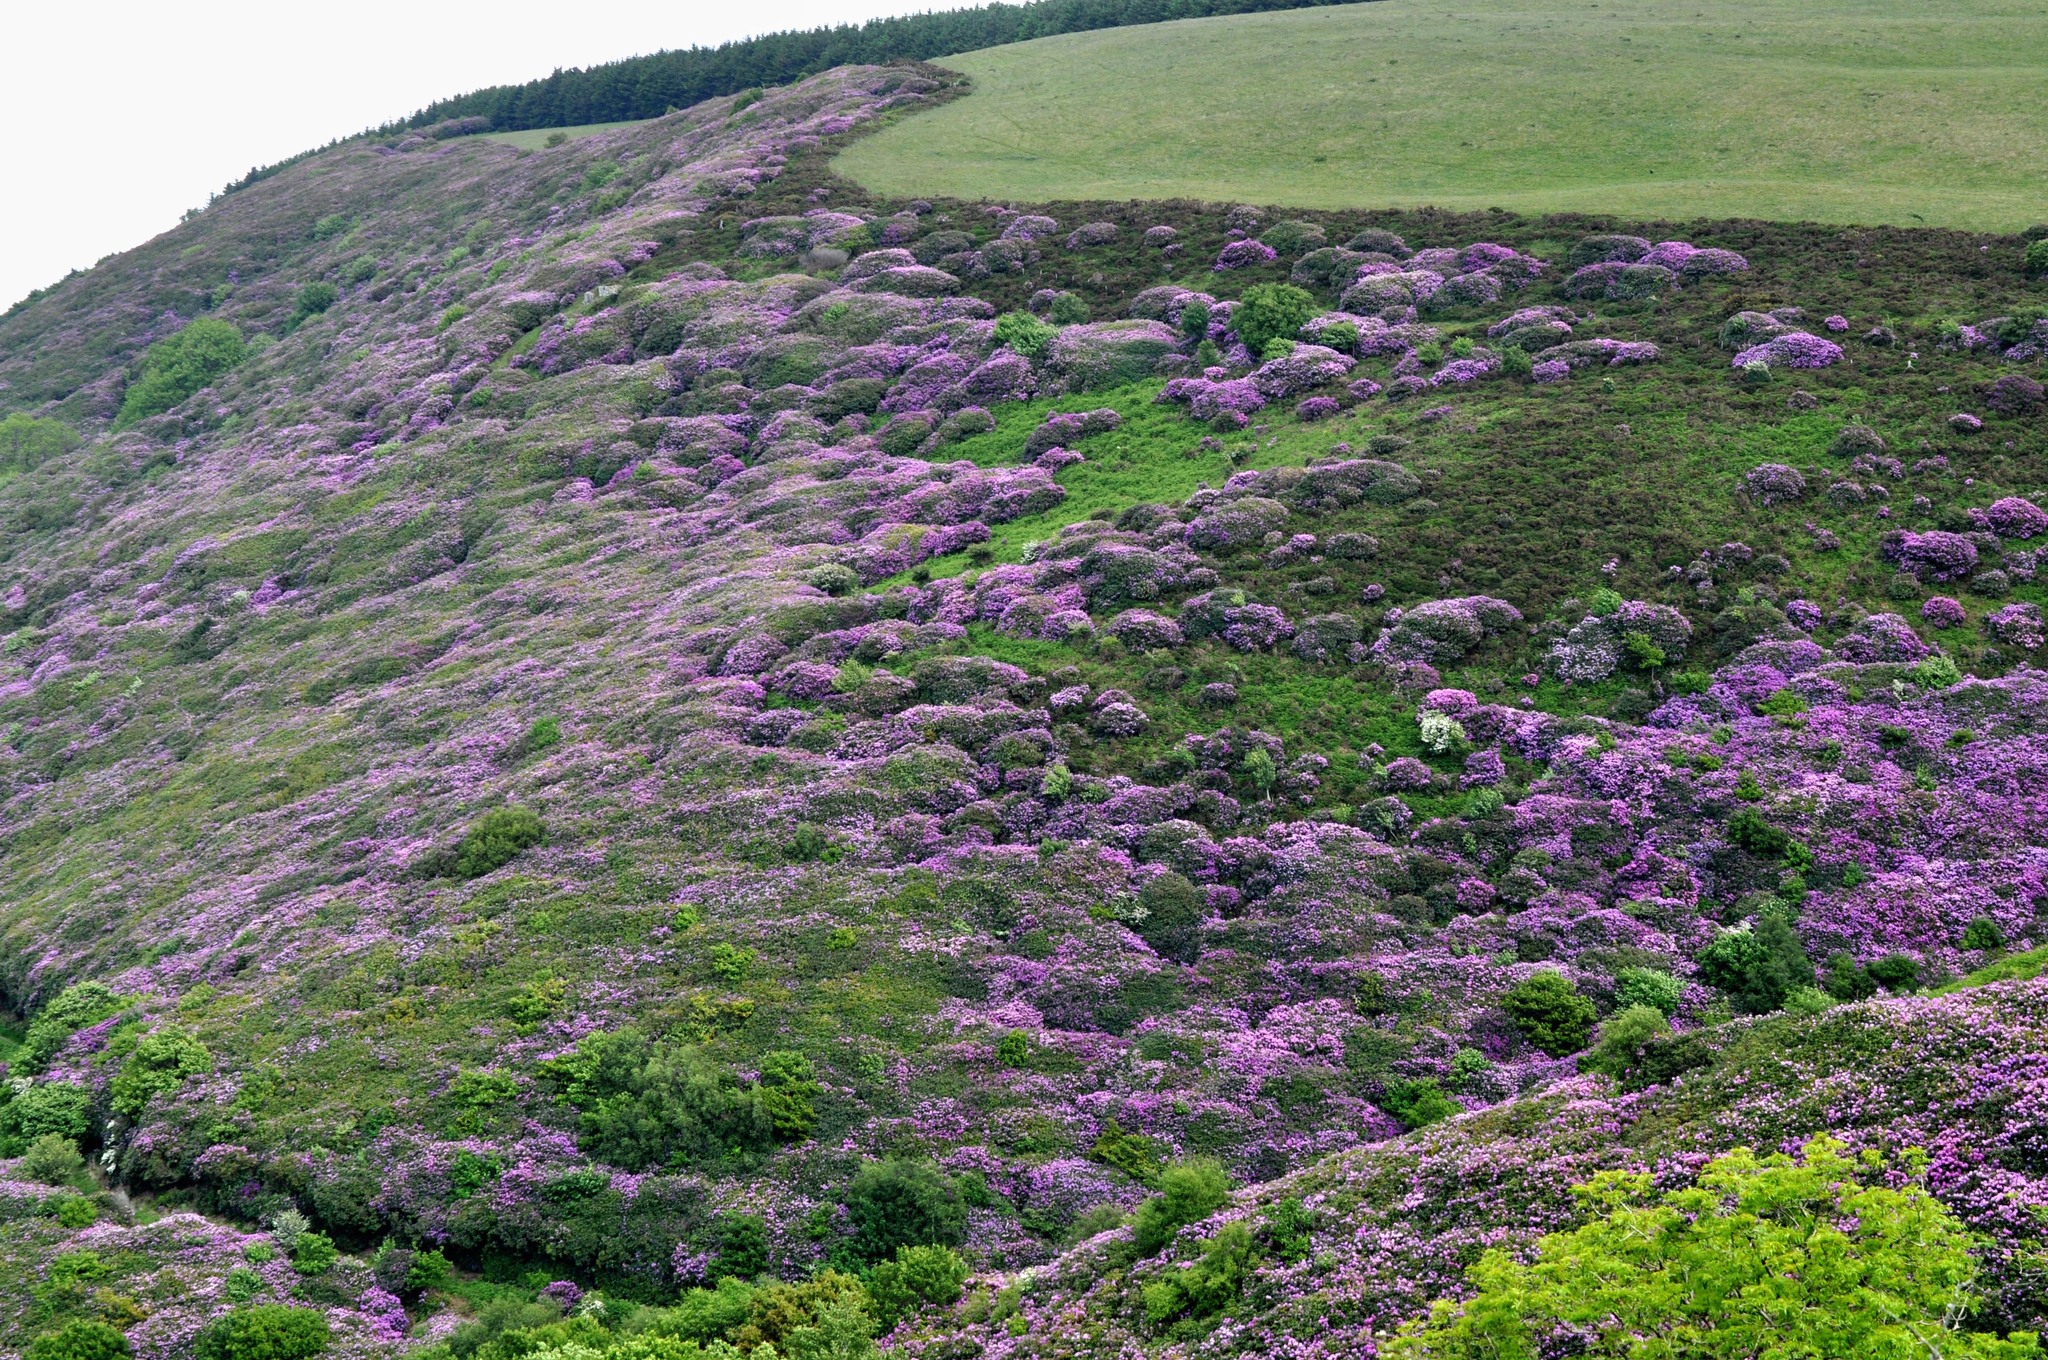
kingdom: Plantae
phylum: Tracheophyta
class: Magnoliopsida
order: Ericales
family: Ericaceae
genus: Rhododendron
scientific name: Rhododendron ponticum
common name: Rhododendron
